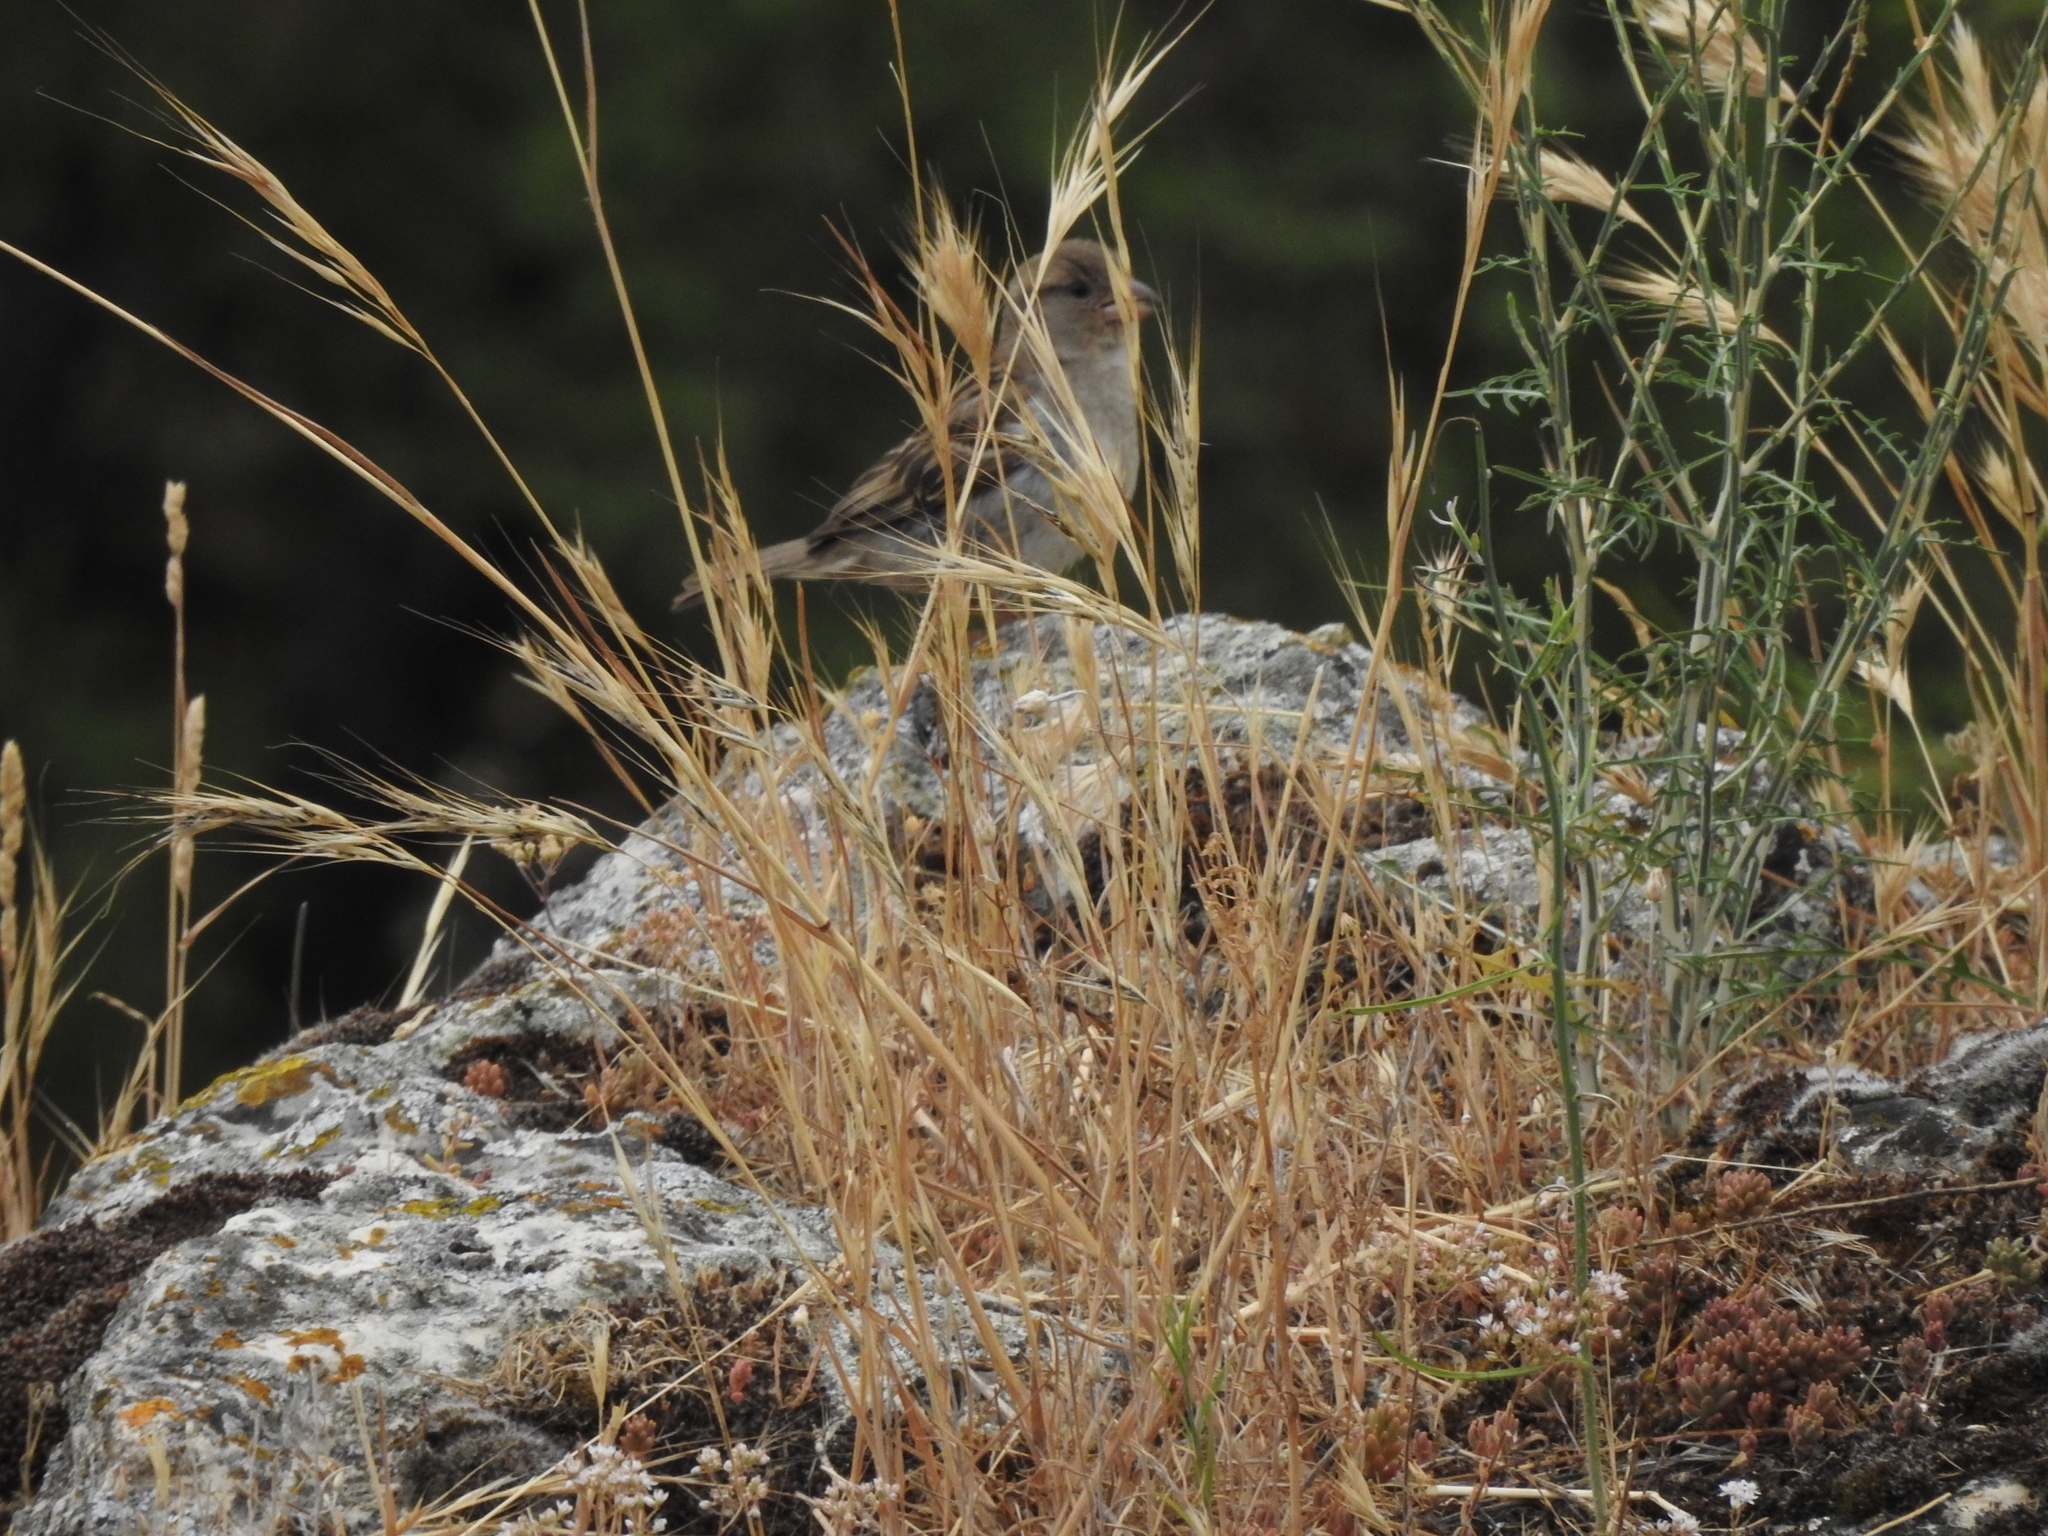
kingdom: Animalia
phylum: Chordata
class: Aves
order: Passeriformes
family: Passeridae
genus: Passer
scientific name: Passer domesticus
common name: House sparrow
